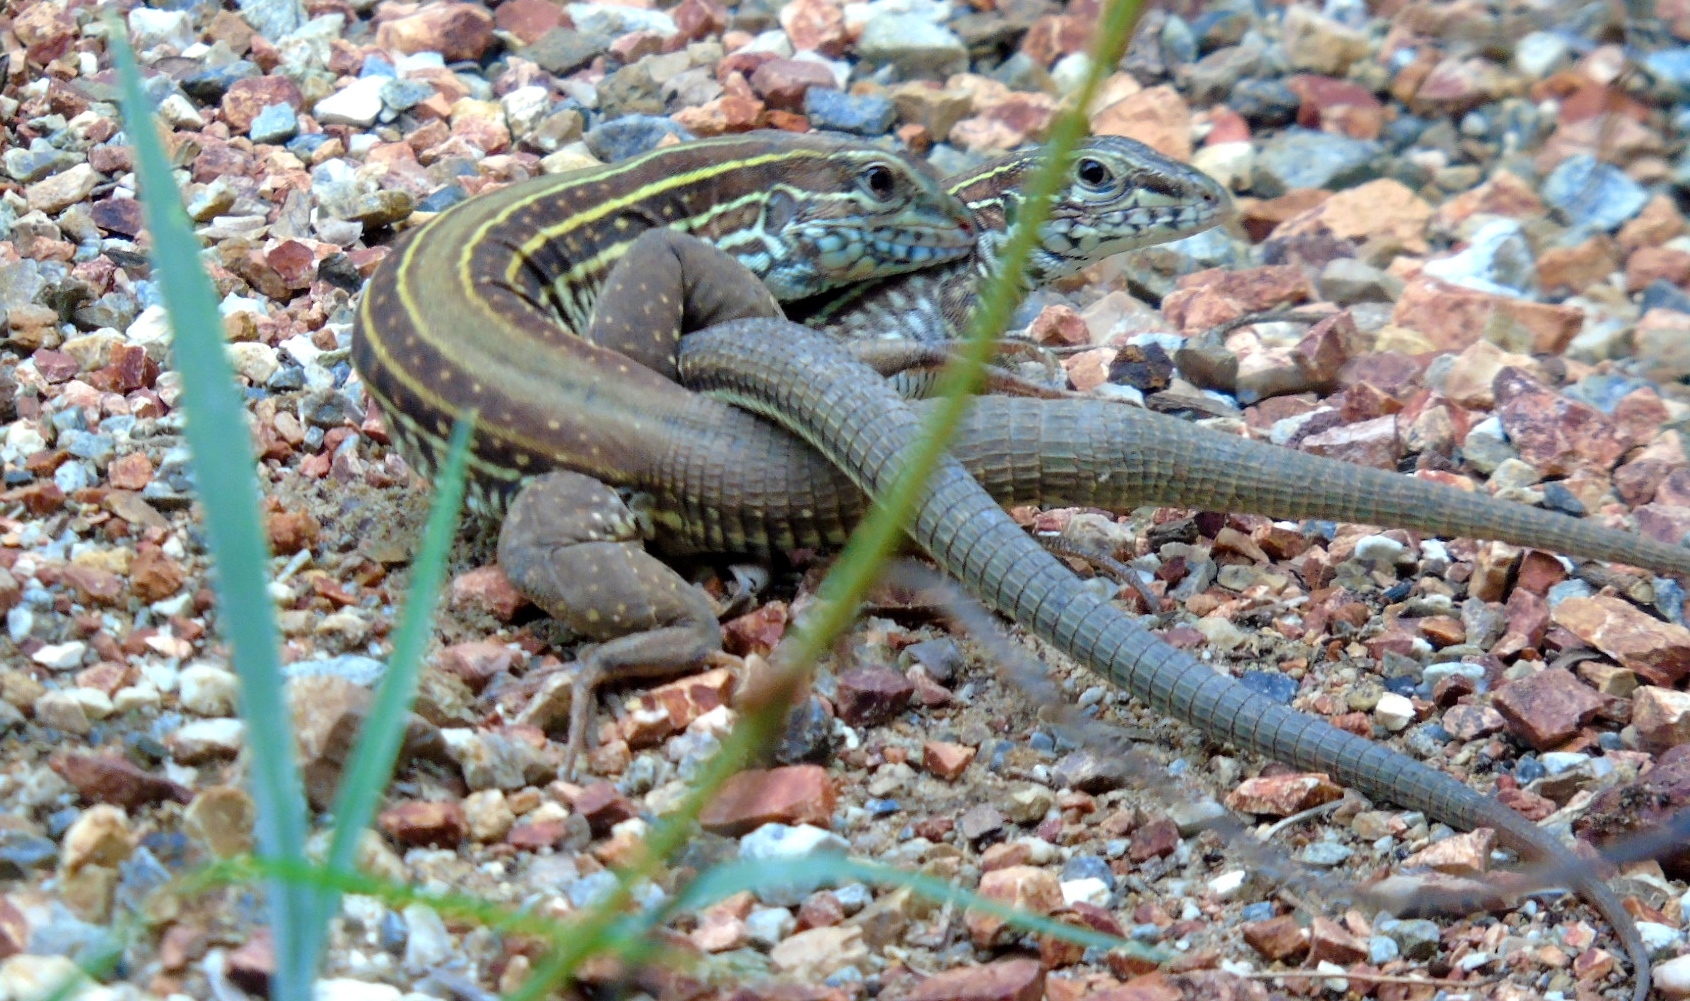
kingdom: Animalia
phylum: Chordata
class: Squamata
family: Teiidae
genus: Aspidoscelis
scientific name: Aspidoscelis costatus
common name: Western mexico whiptail
